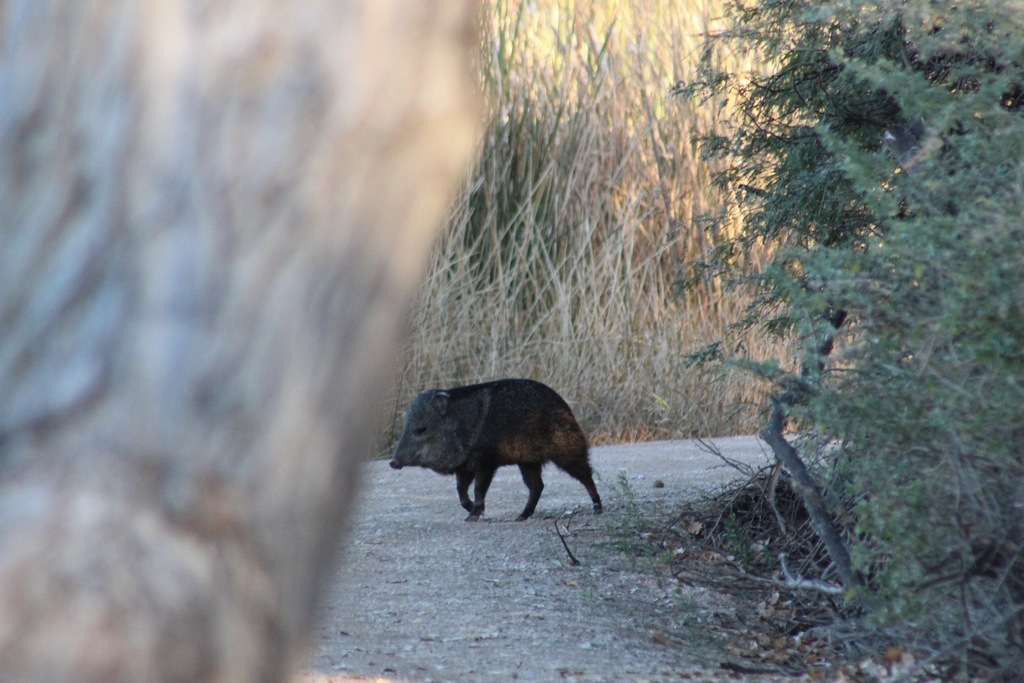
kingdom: Animalia
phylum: Chordata
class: Mammalia
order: Artiodactyla
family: Tayassuidae
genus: Pecari
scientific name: Pecari tajacu
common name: Collared peccary
